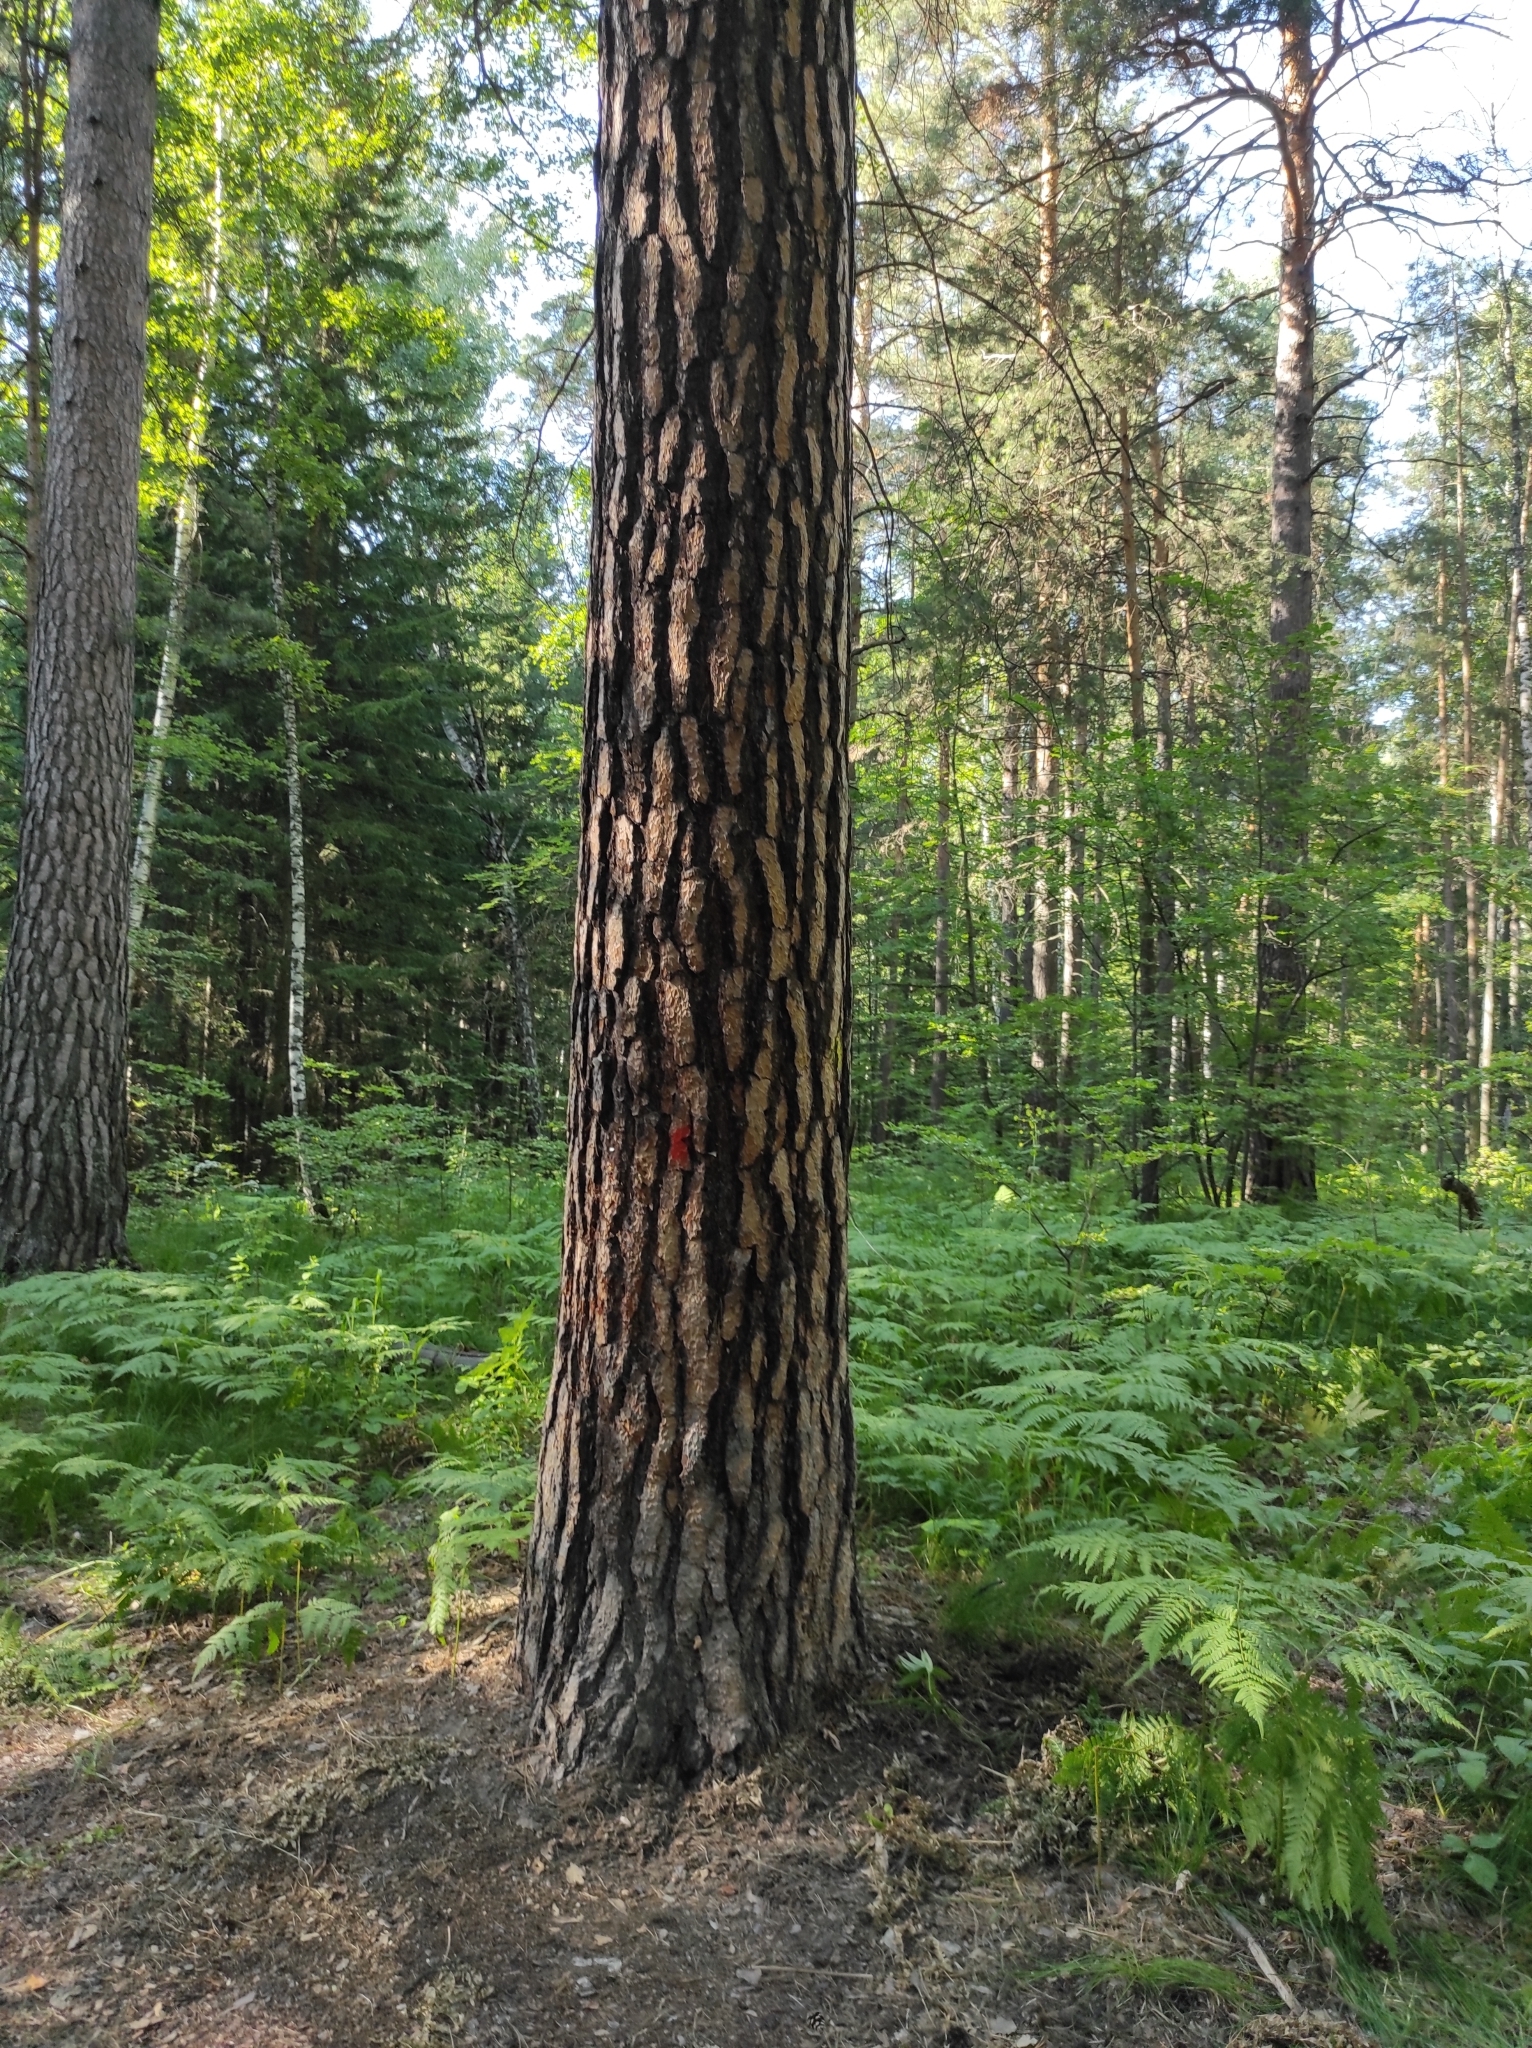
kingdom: Plantae
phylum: Tracheophyta
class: Pinopsida
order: Pinales
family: Pinaceae
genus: Pinus
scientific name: Pinus sylvestris
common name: Scots pine
